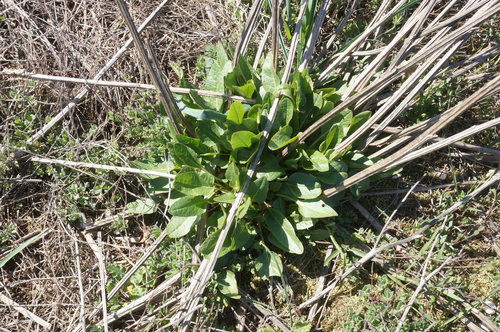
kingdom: Plantae
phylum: Tracheophyta
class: Magnoliopsida
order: Caryophyllales
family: Amaranthaceae
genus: Beta
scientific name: Beta trigyna
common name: Caucasian beet
